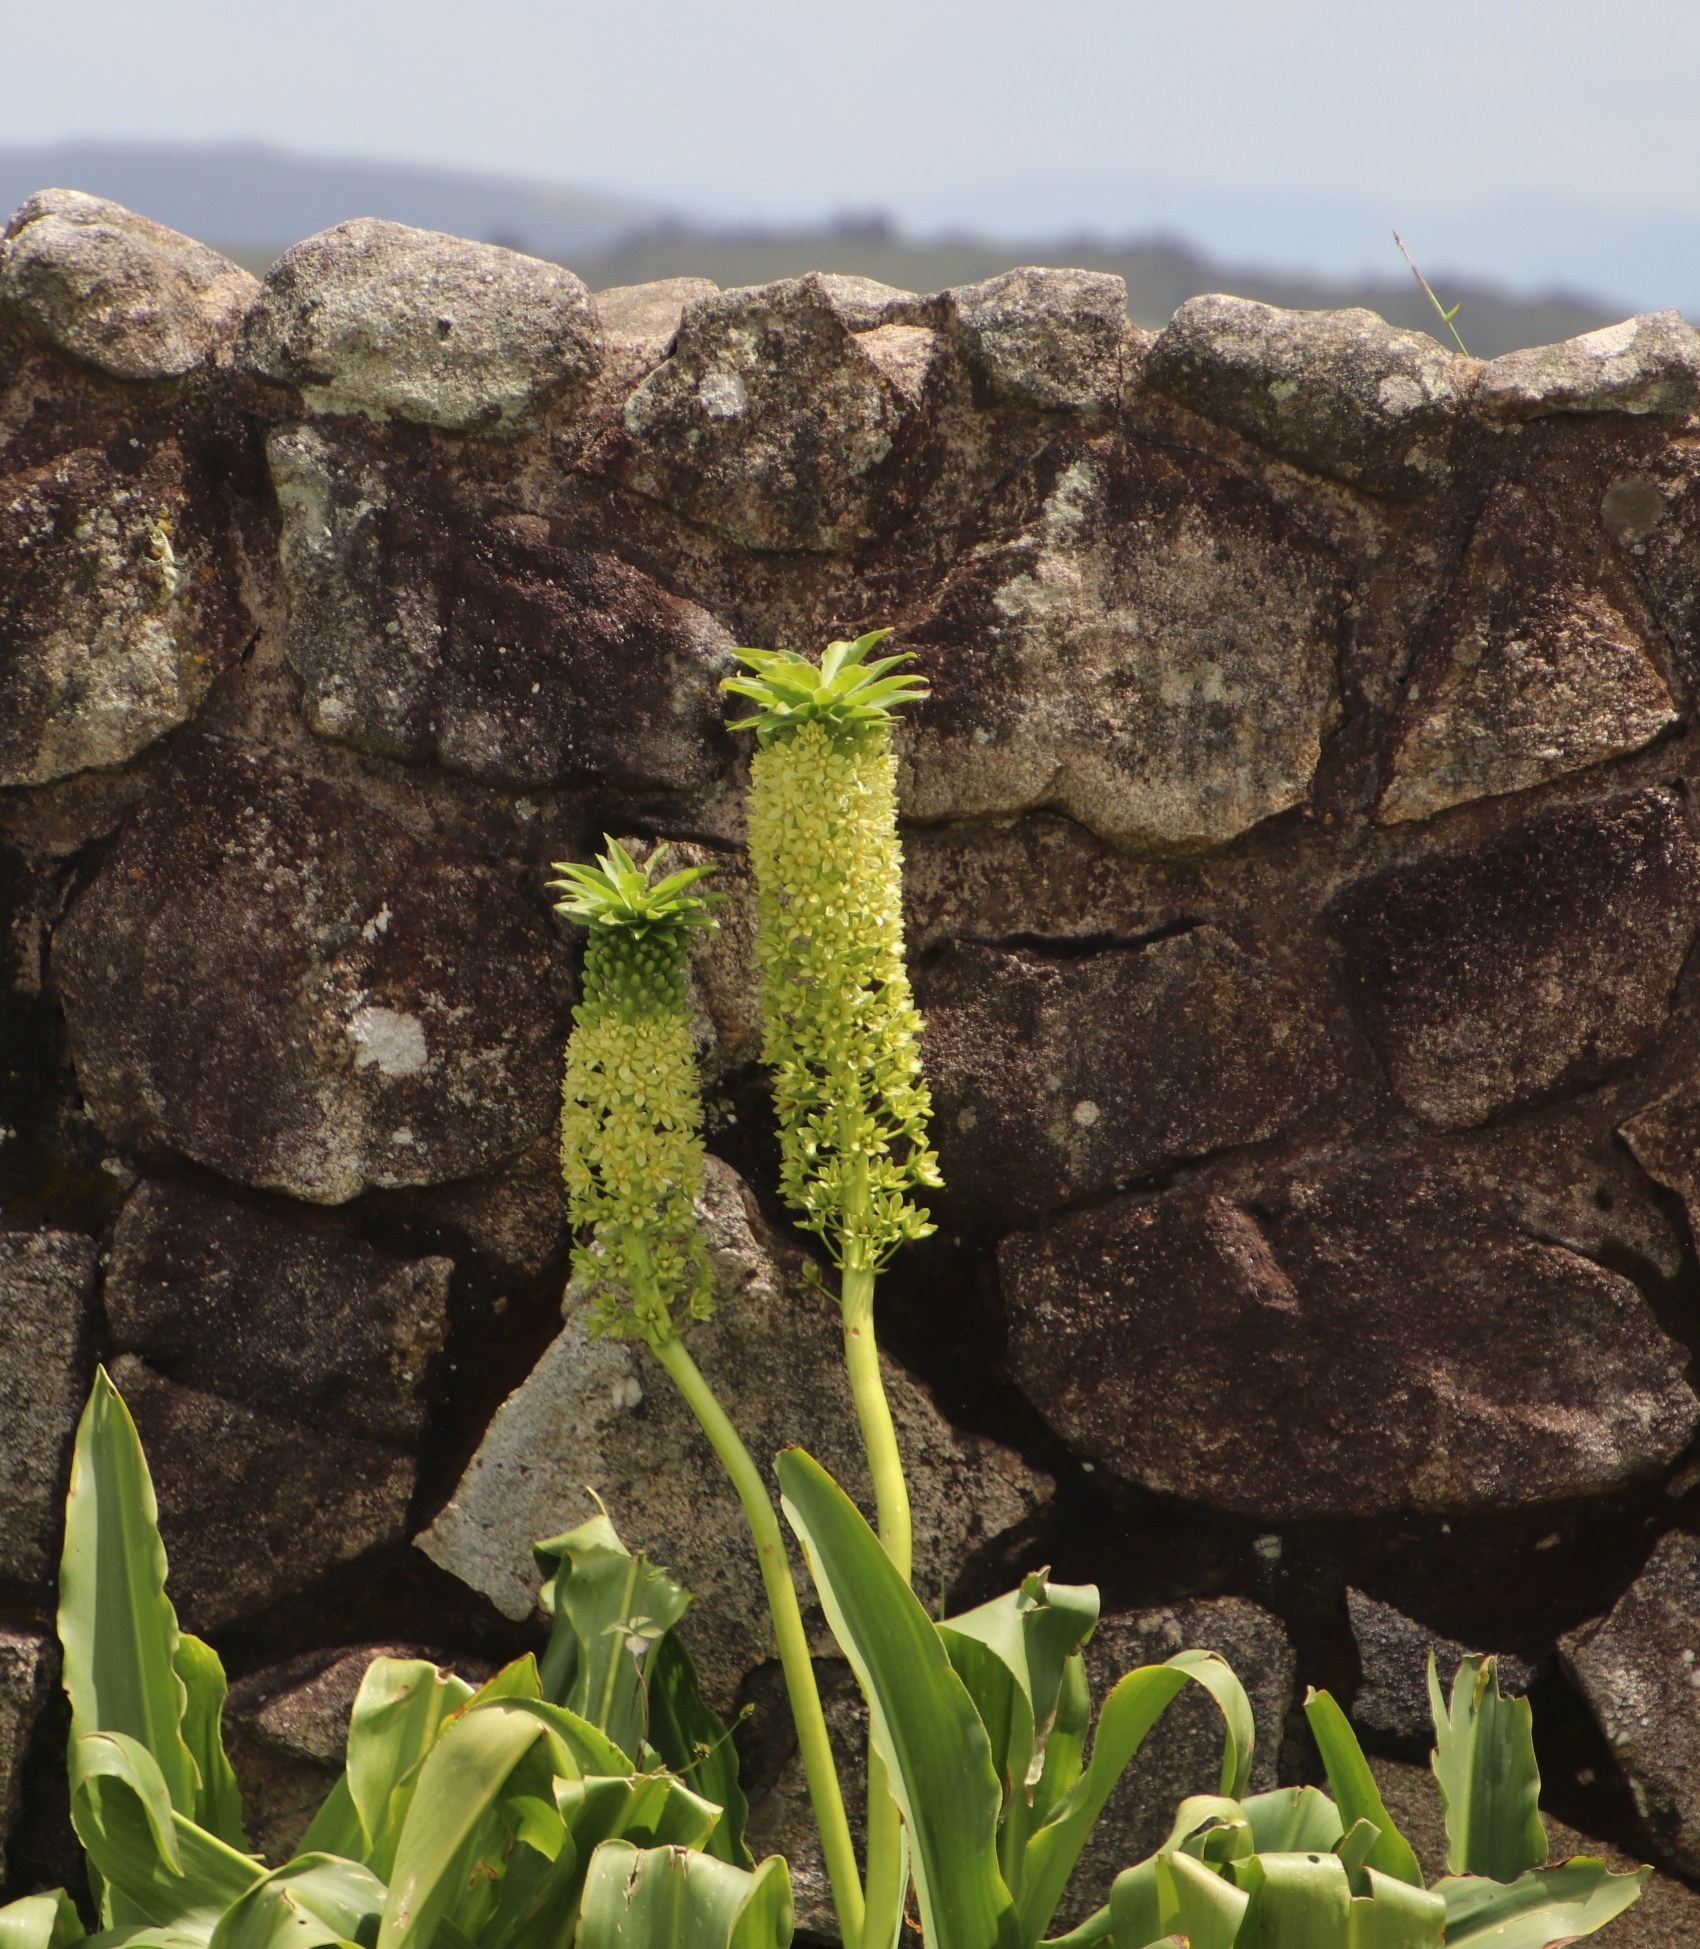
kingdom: Plantae
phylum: Tracheophyta
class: Liliopsida
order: Asparagales
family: Asparagaceae
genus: Eucomis
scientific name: Eucomis autumnalis
